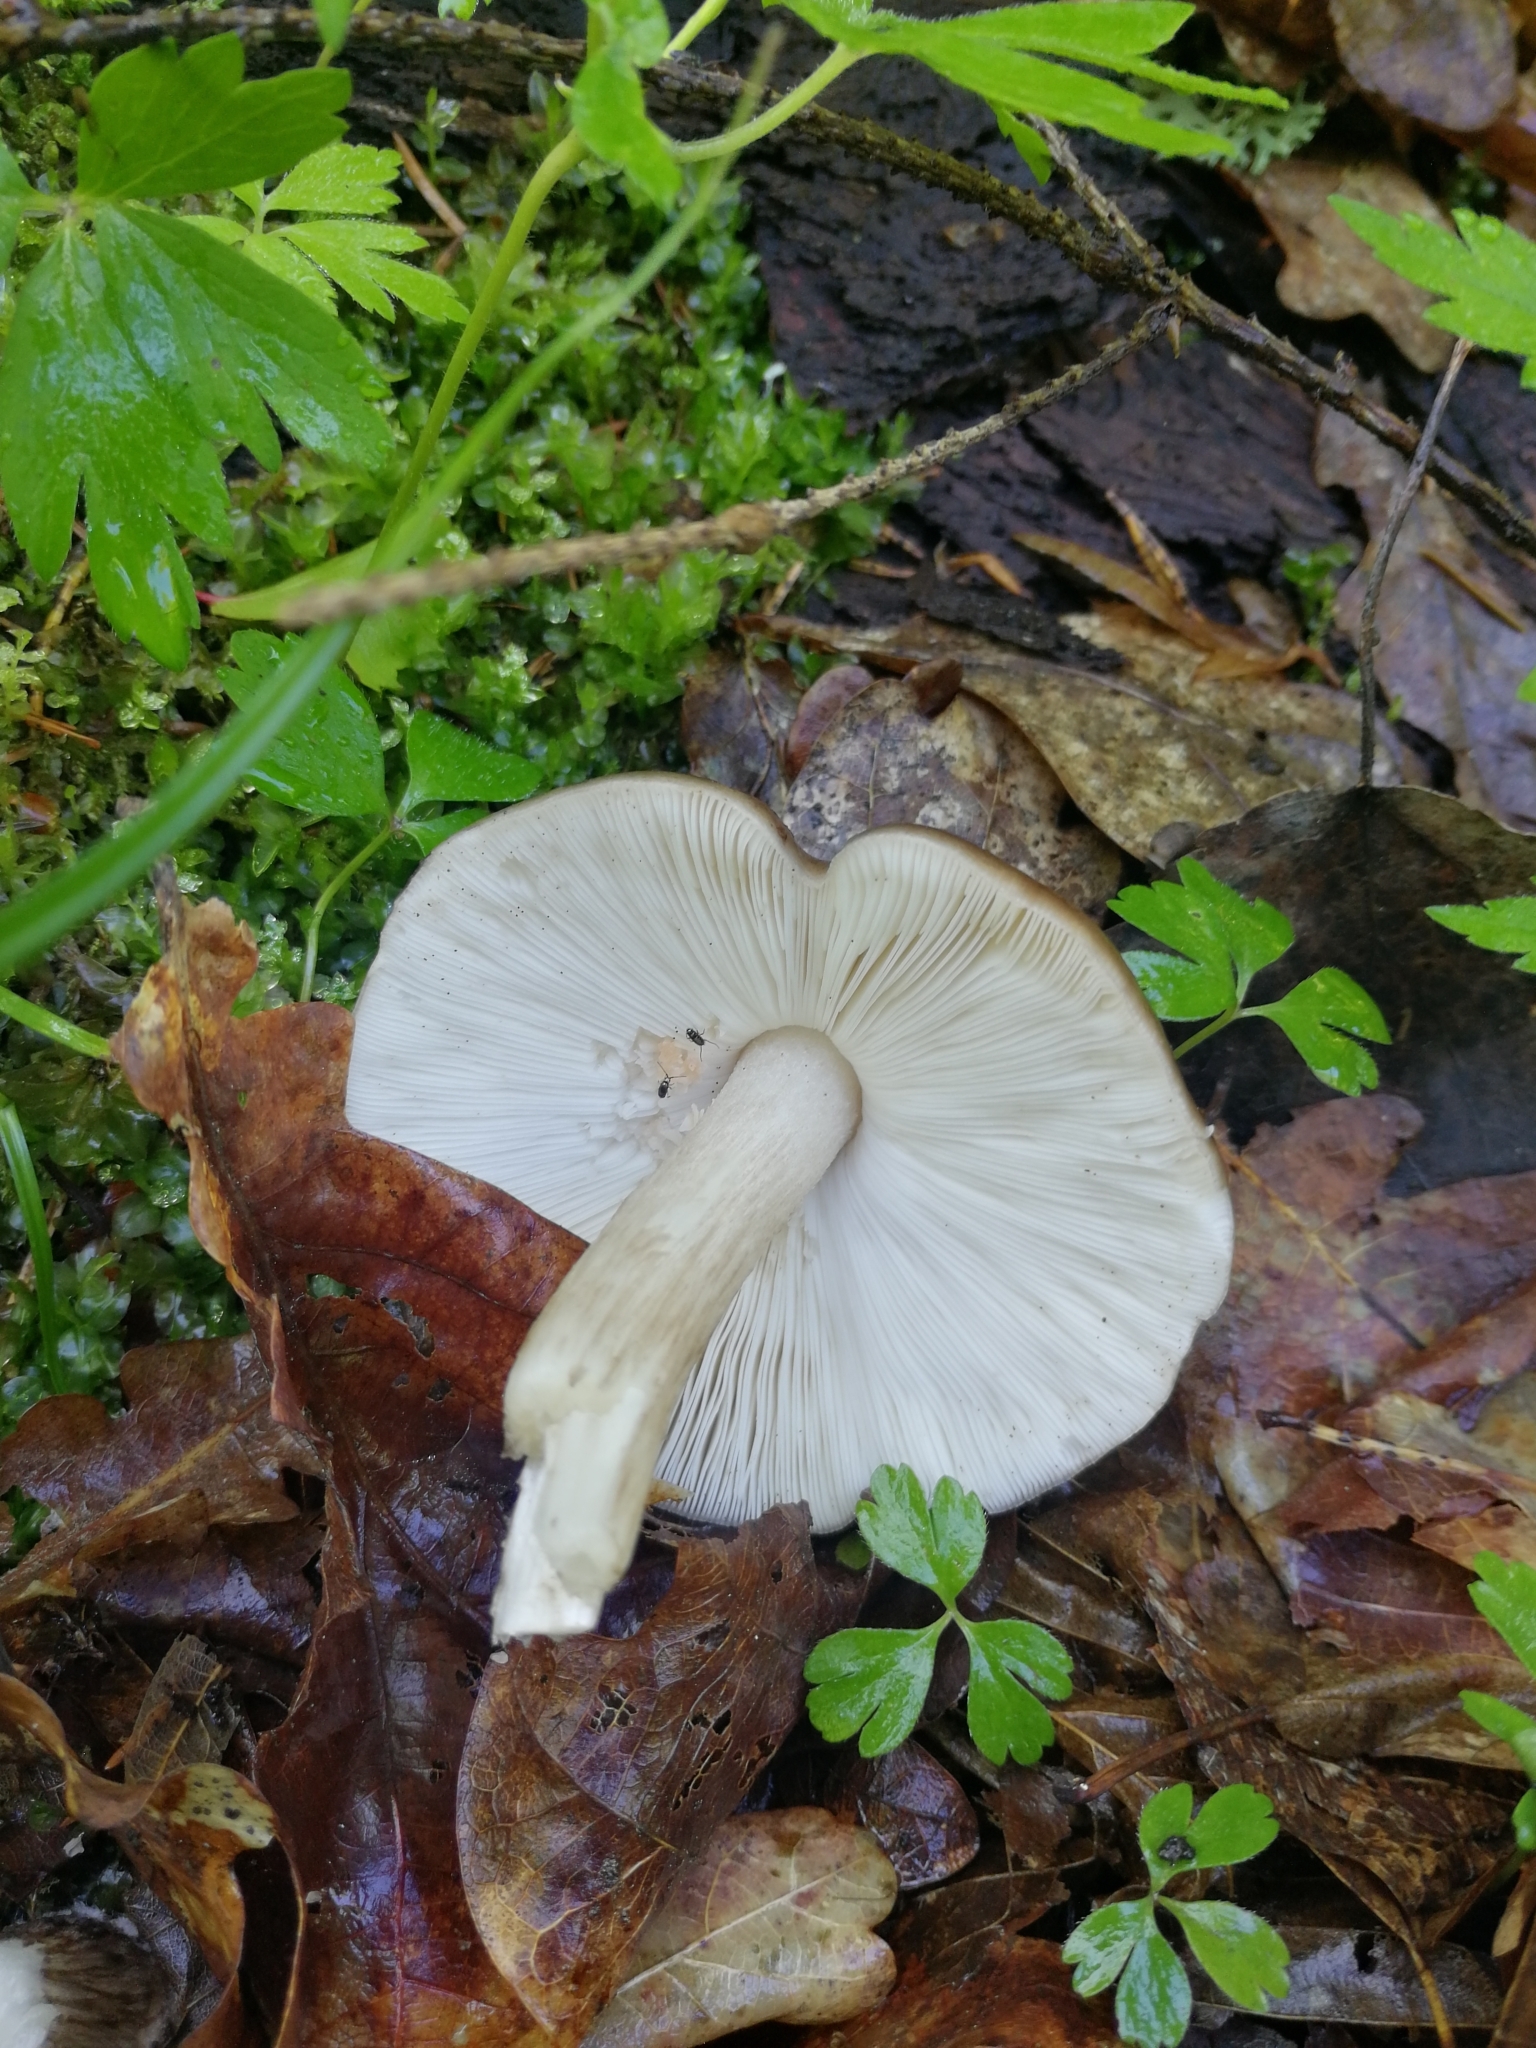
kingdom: Fungi
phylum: Basidiomycota
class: Agaricomycetes
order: Agaricales
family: Pluteaceae
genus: Pluteus
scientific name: Pluteus
